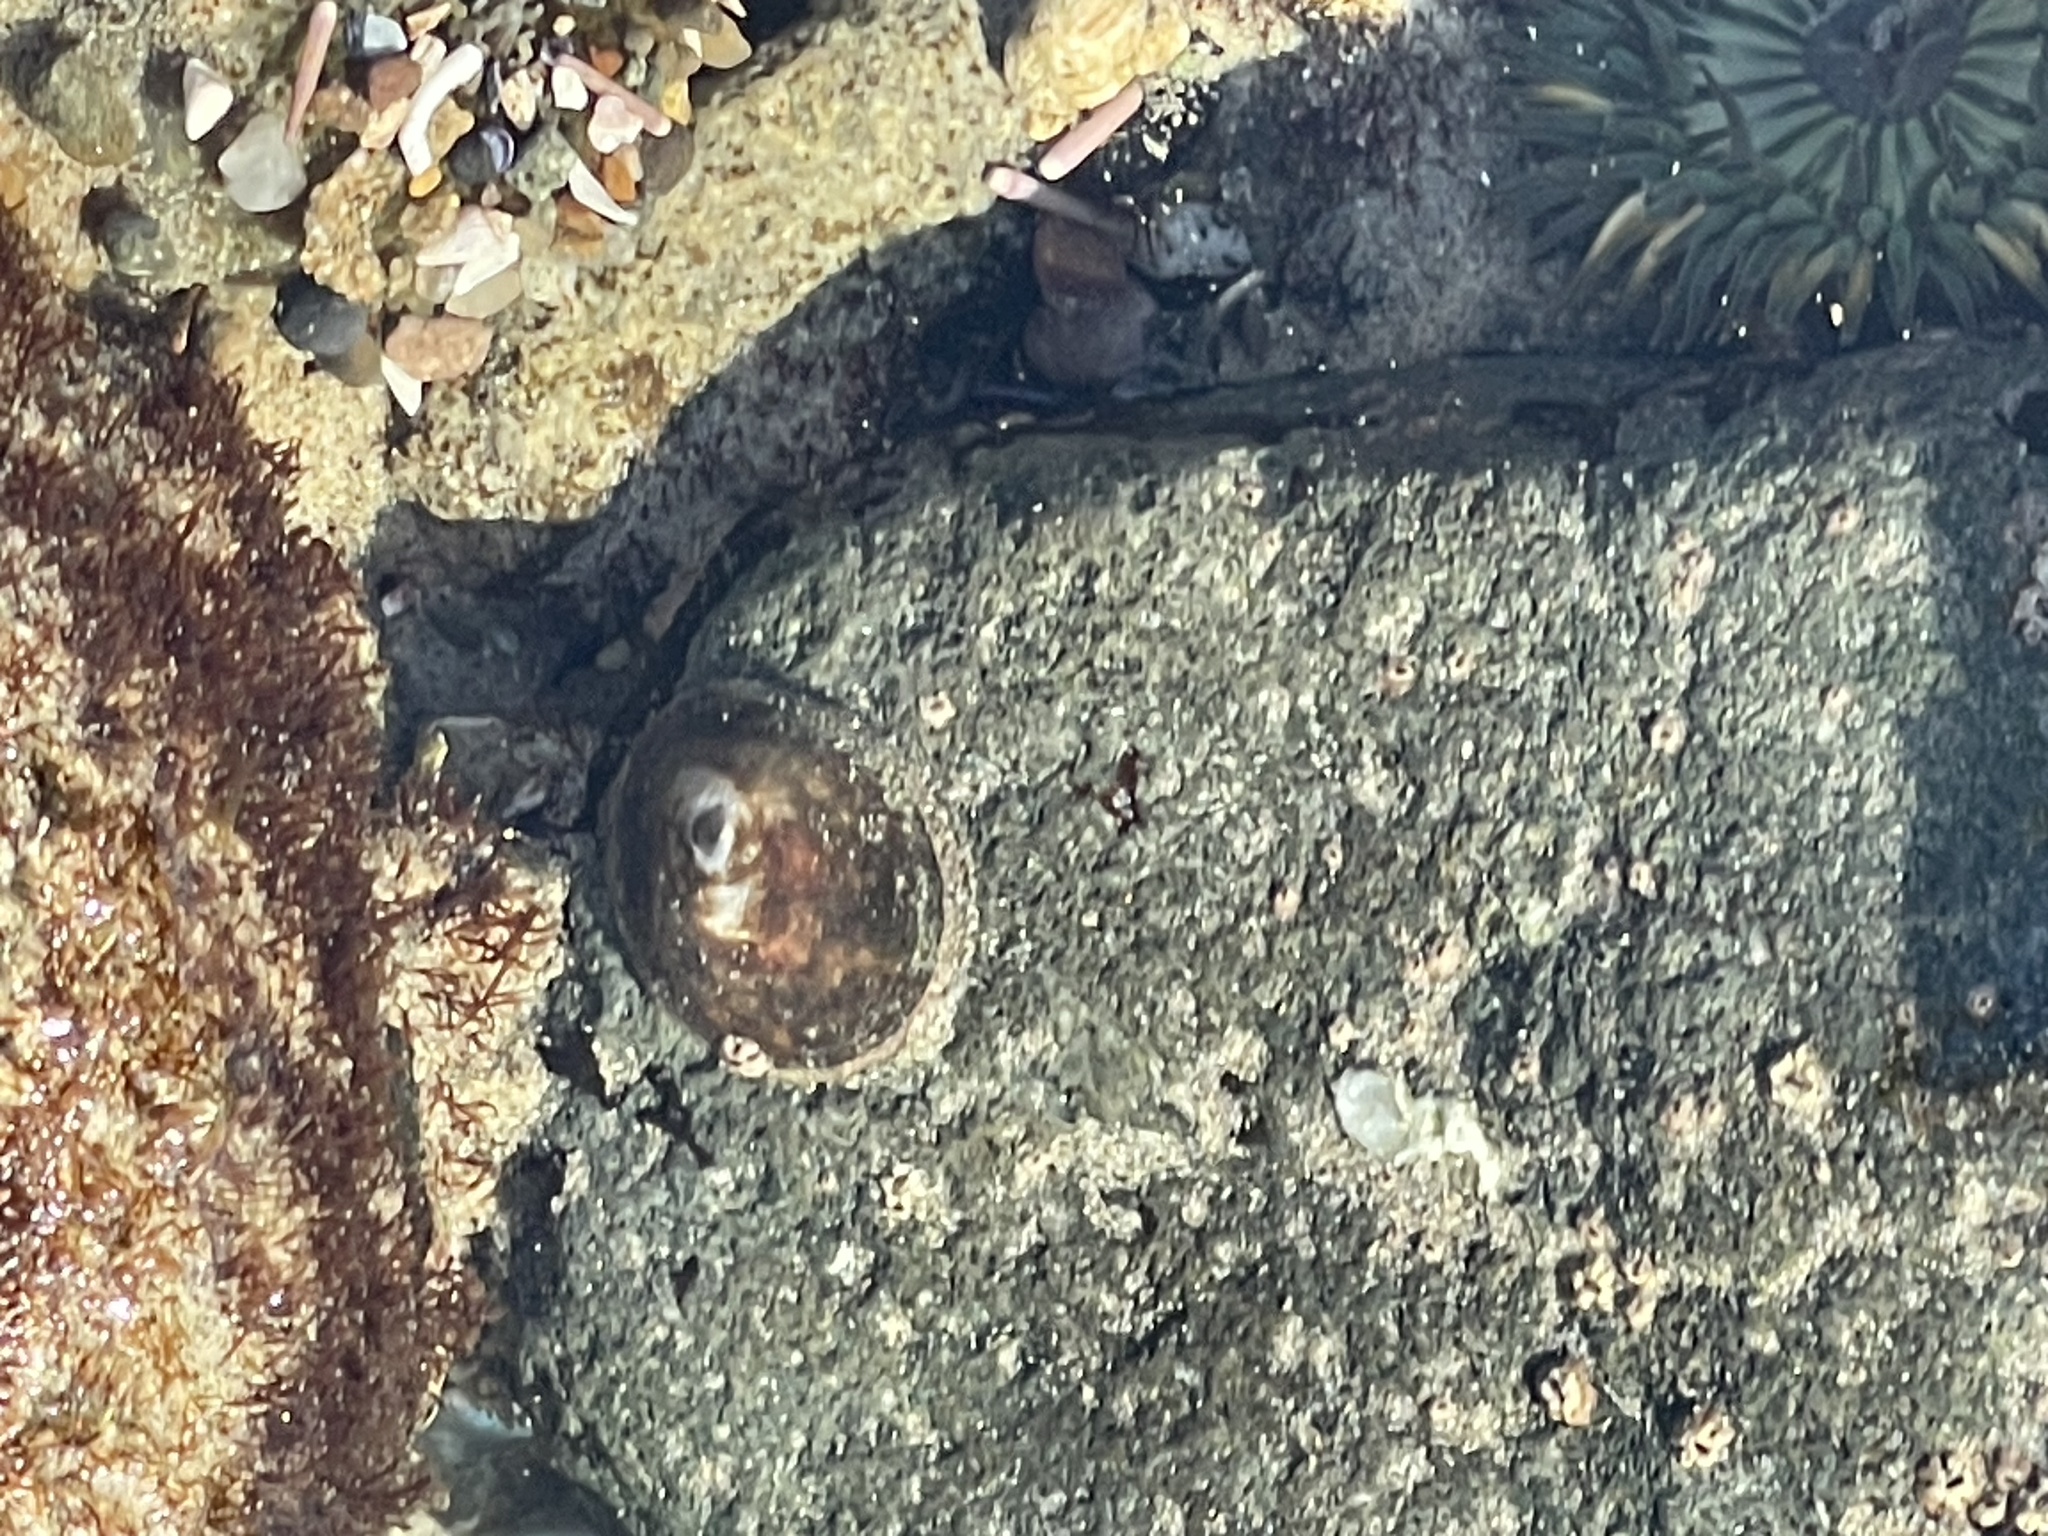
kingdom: Animalia
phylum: Mollusca
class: Gastropoda
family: Lottiidae
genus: Lottia
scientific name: Lottia fenestrata
